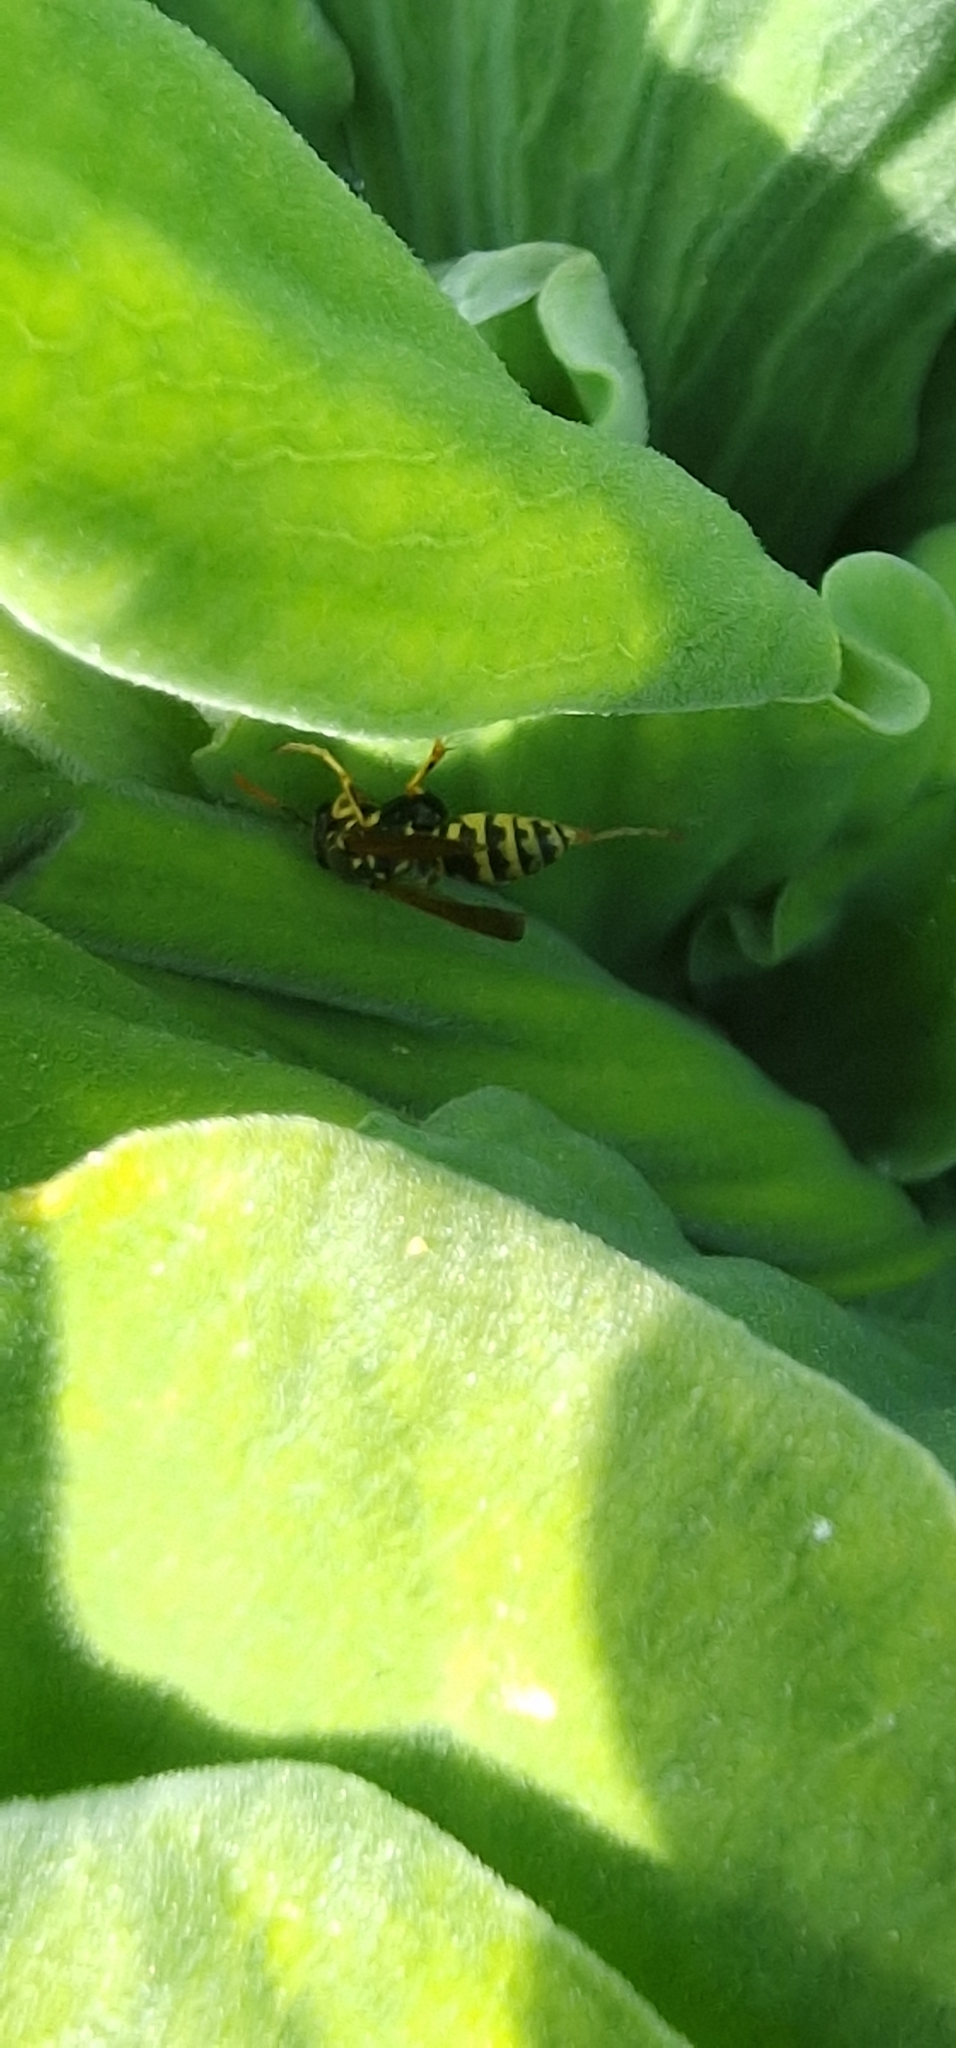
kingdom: Animalia
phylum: Arthropoda
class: Insecta
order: Hymenoptera
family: Eumenidae
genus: Polistes
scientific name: Polistes dominula
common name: Paper wasp
